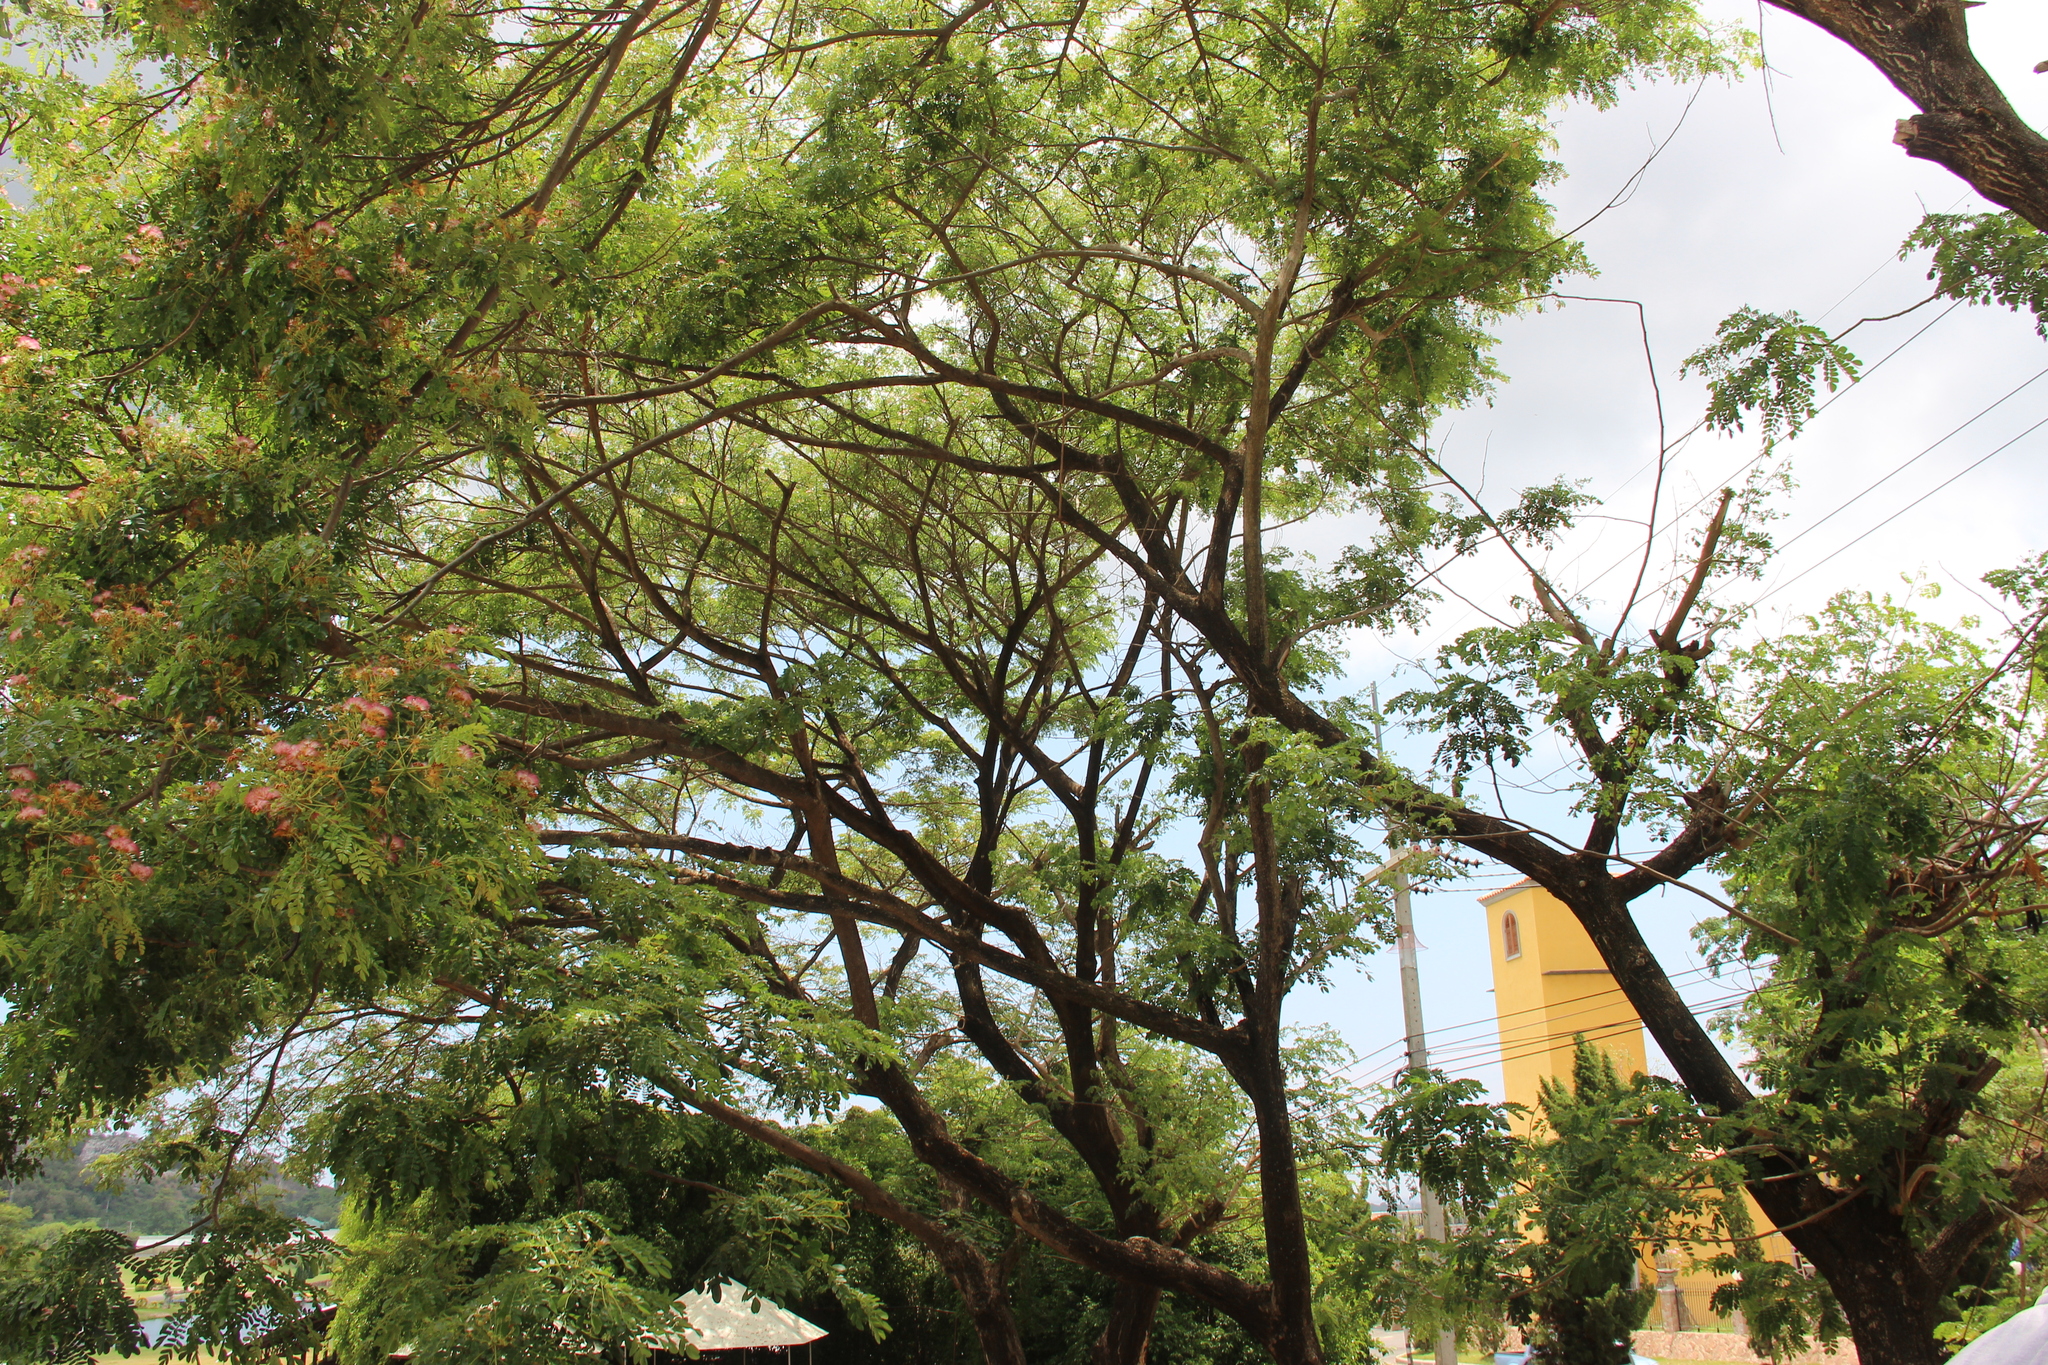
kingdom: Plantae
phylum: Tracheophyta
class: Magnoliopsida
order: Fabales
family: Fabaceae
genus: Samanea
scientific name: Samanea saman
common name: Raintree
